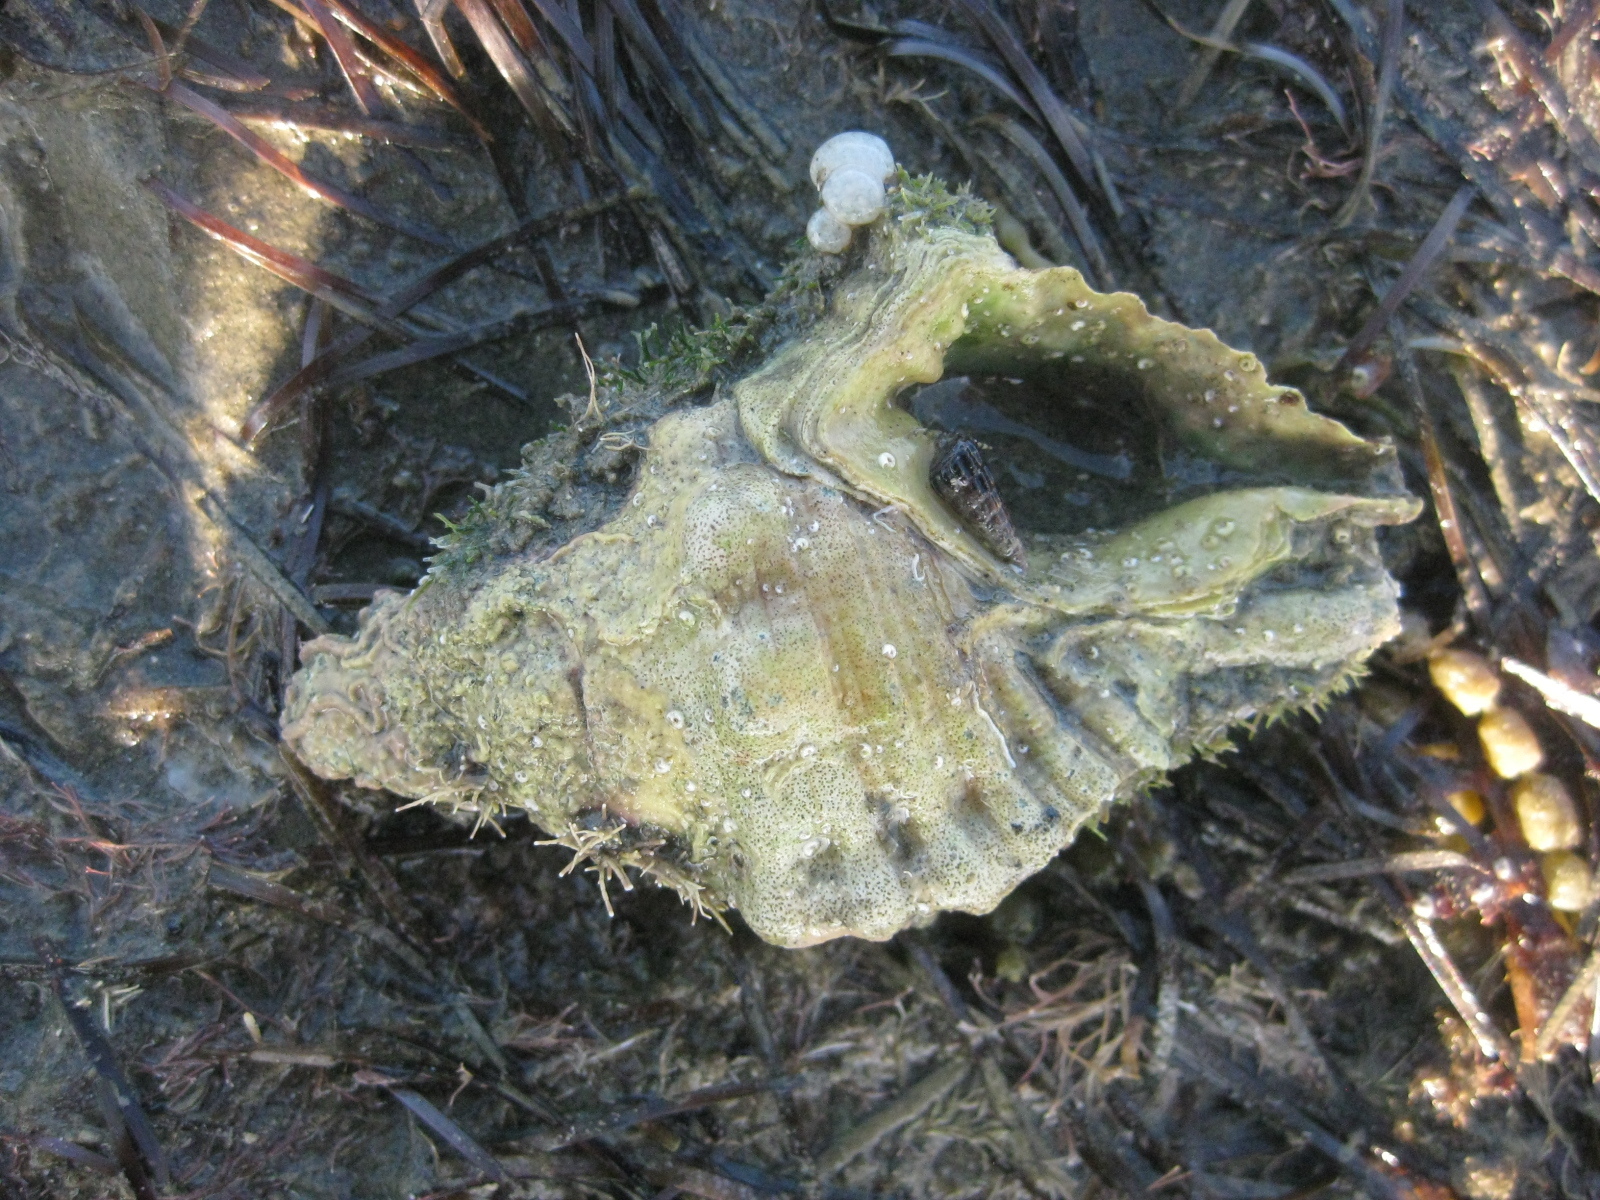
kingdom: Animalia
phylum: Mollusca
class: Gastropoda
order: Littorinimorpha
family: Cymatiidae
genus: Cabestana
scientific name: Cabestana spengleri
